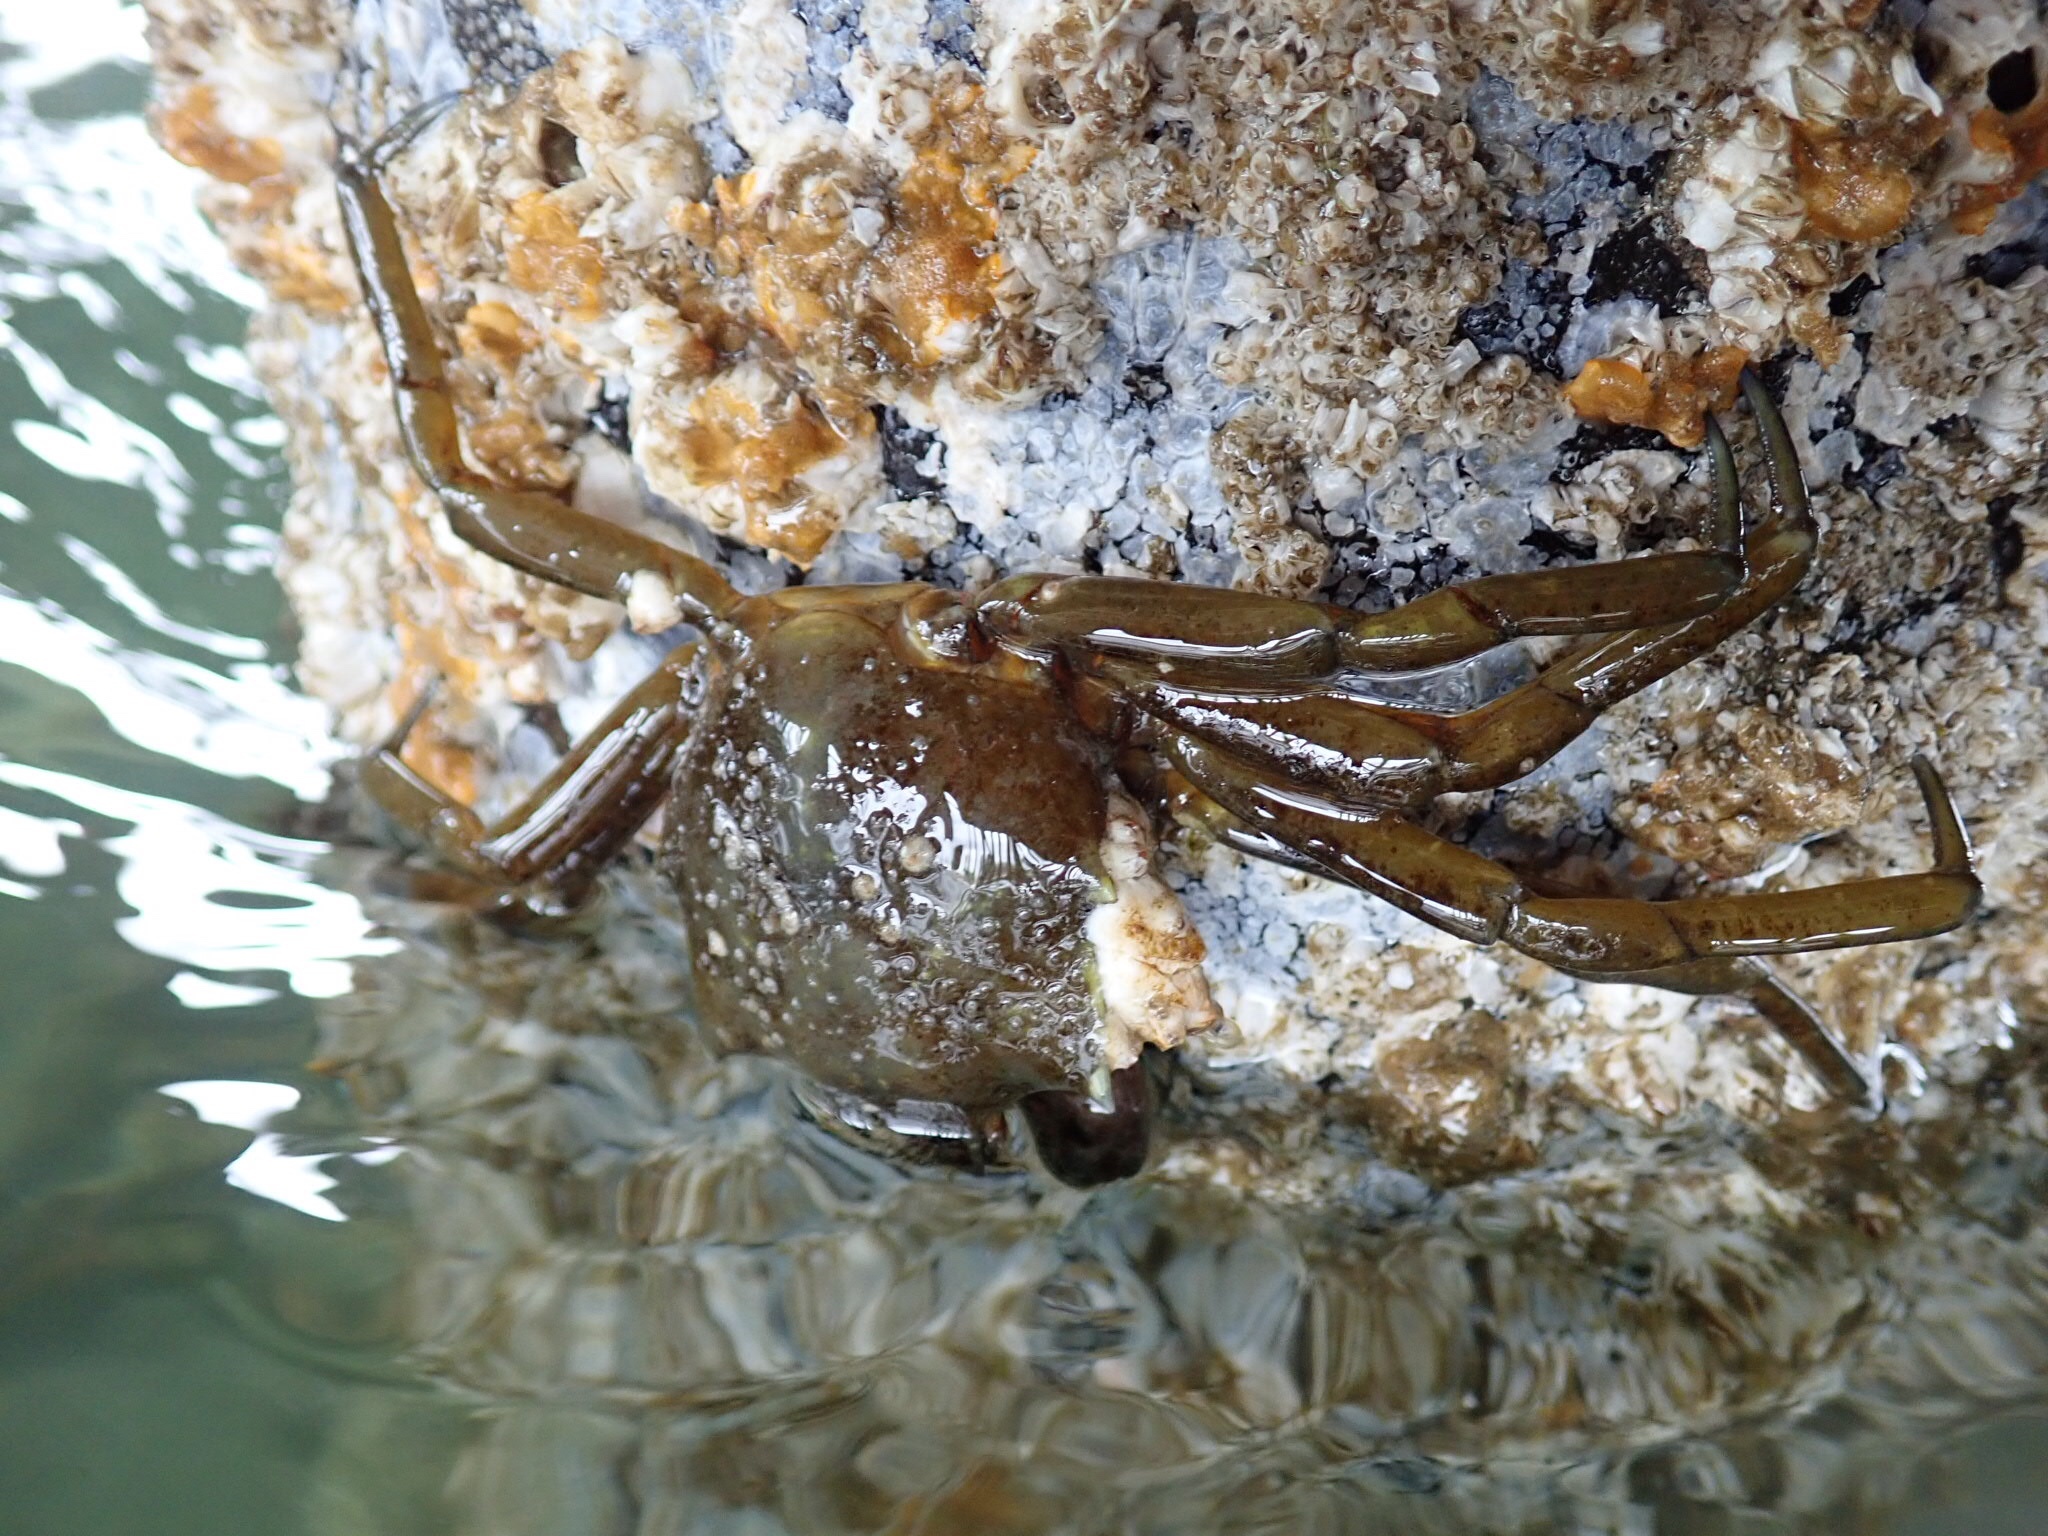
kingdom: Animalia
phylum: Arthropoda
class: Malacostraca
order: Decapoda
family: Epialtidae
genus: Pugettia
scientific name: Pugettia producta
